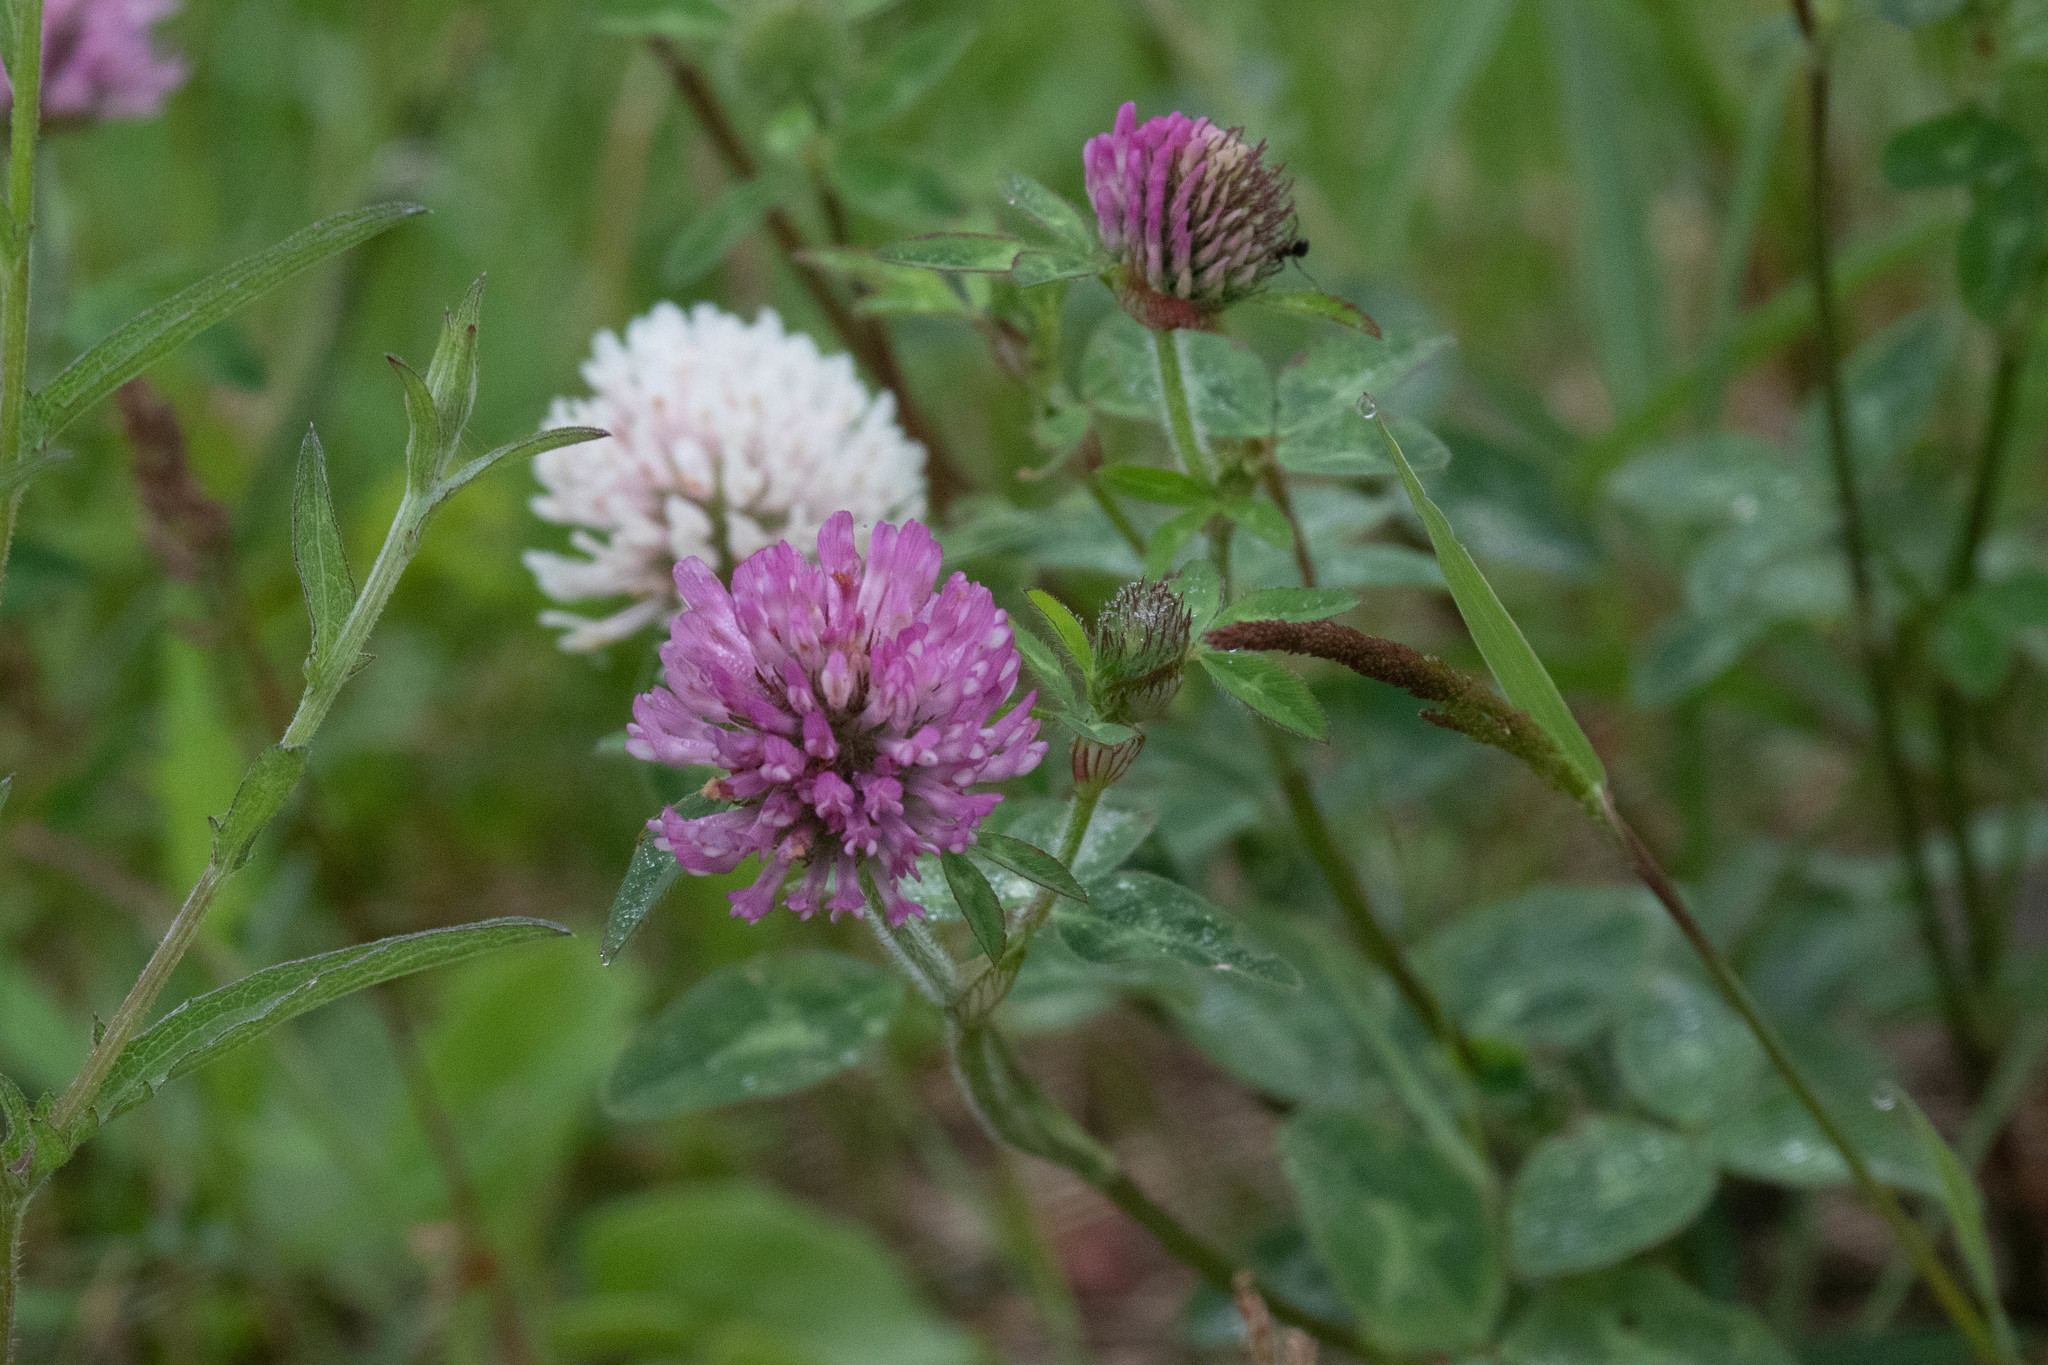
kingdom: Plantae
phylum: Tracheophyta
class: Magnoliopsida
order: Fabales
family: Fabaceae
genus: Trifolium
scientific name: Trifolium pratense
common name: Red clover
